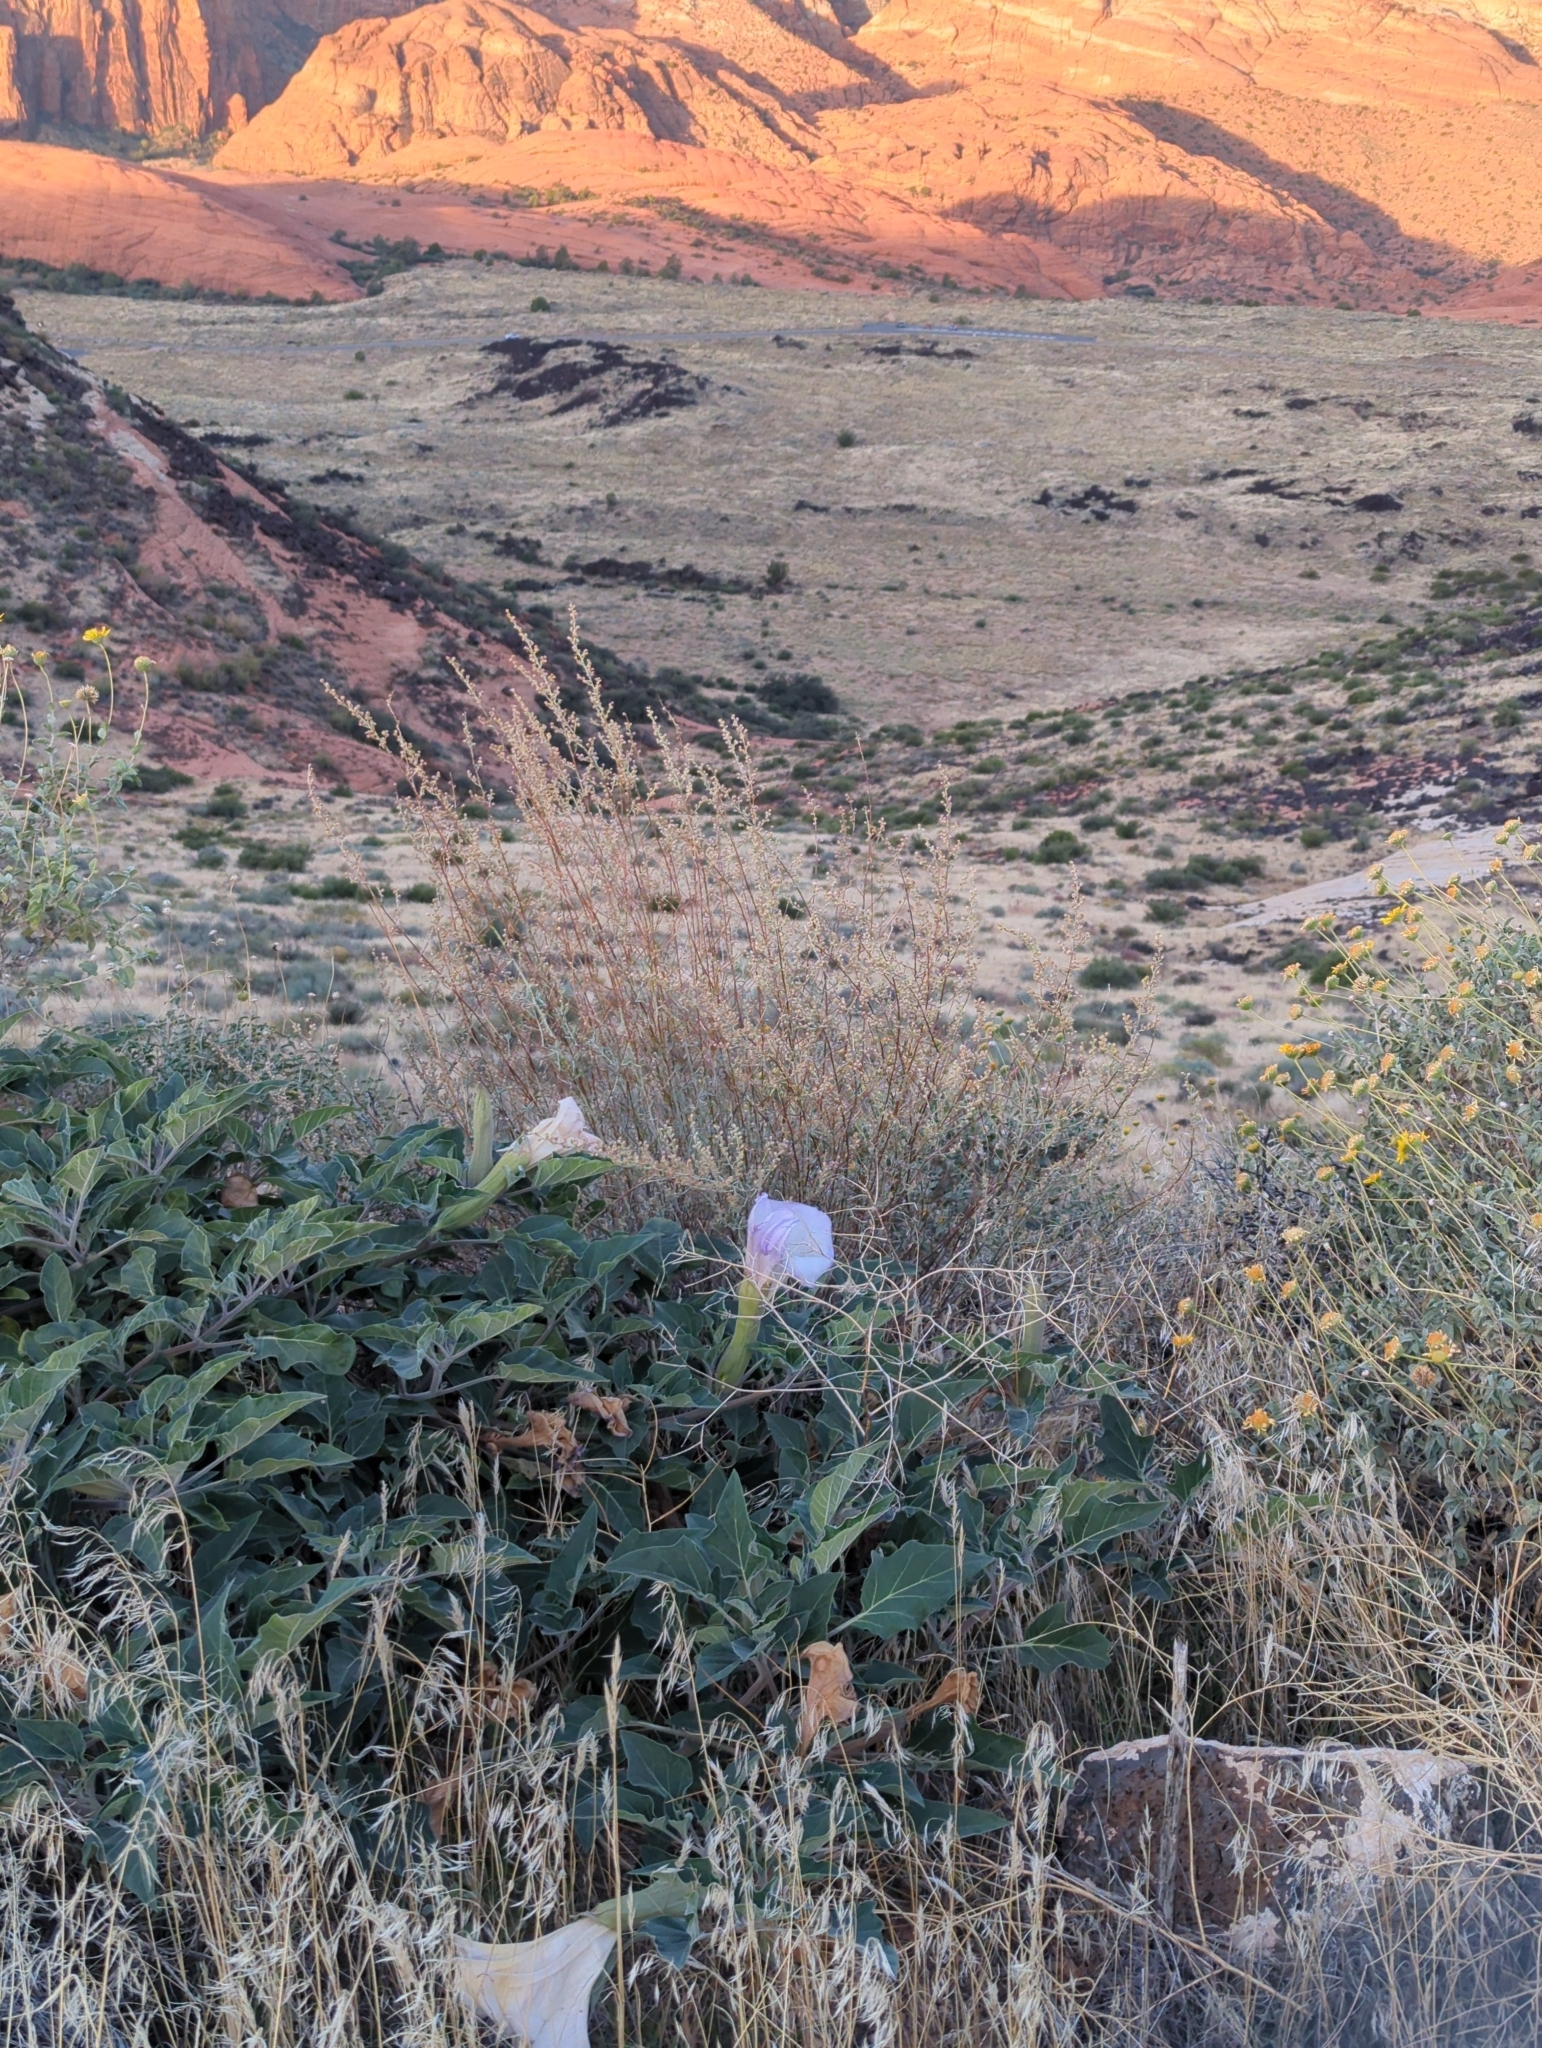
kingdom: Plantae
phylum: Tracheophyta
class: Magnoliopsida
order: Solanales
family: Solanaceae
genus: Datura
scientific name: Datura wrightii
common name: Sacred thorn-apple
